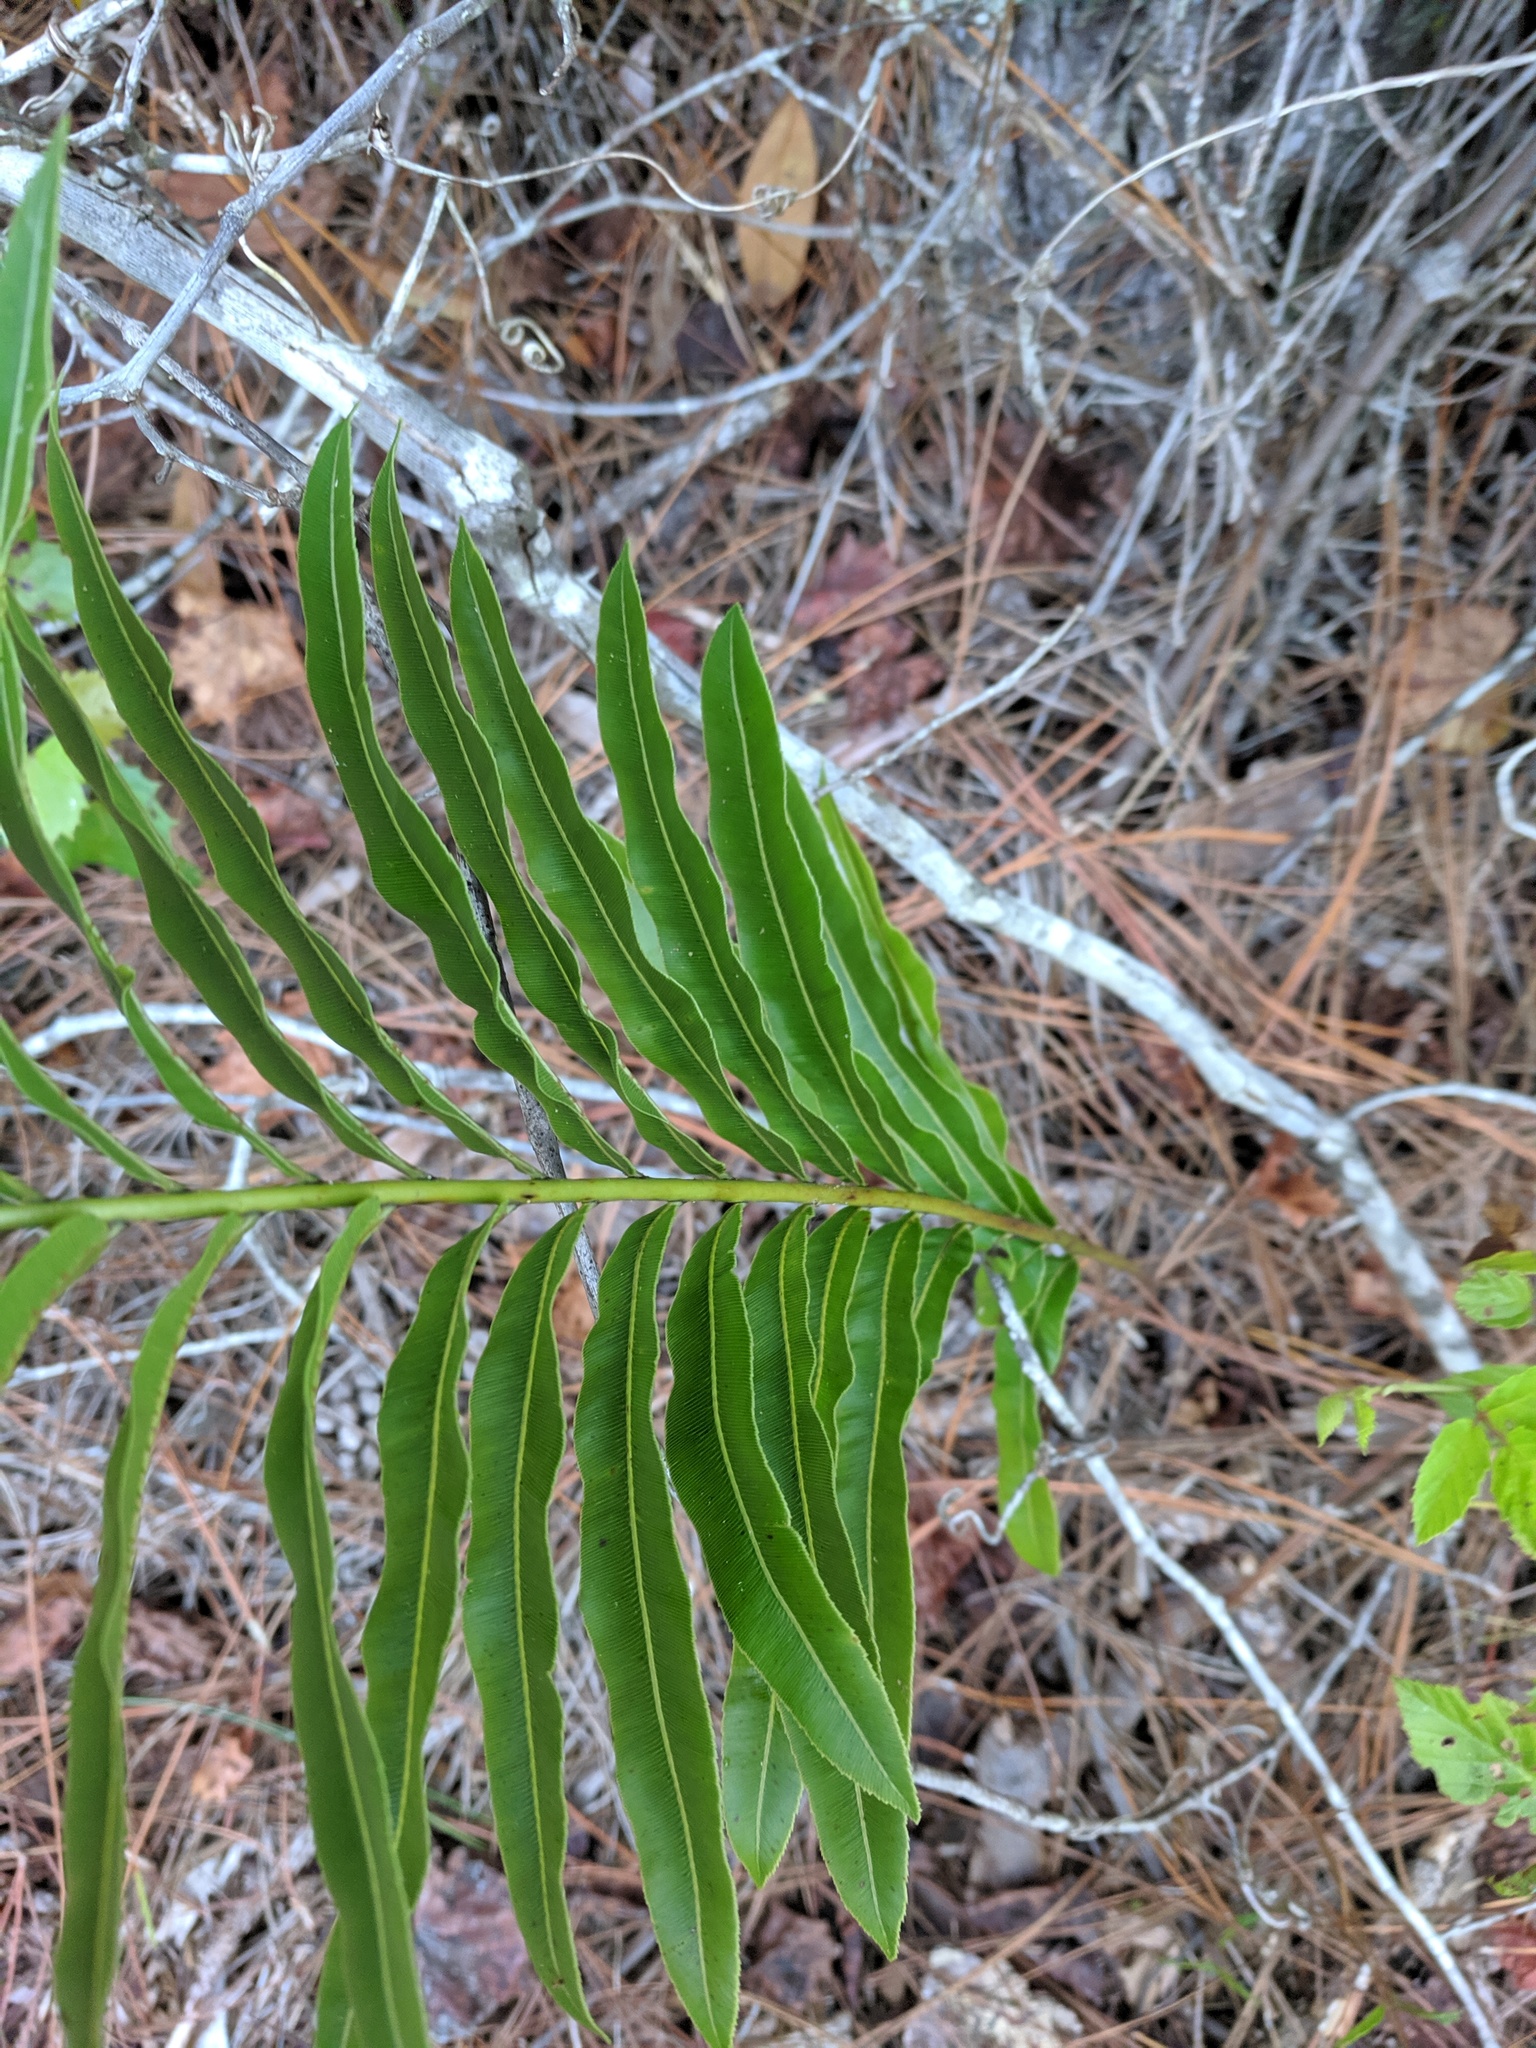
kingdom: Plantae
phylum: Tracheophyta
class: Polypodiopsida
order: Polypodiales
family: Blechnaceae
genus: Telmatoblechnum
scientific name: Telmatoblechnum serrulatum
